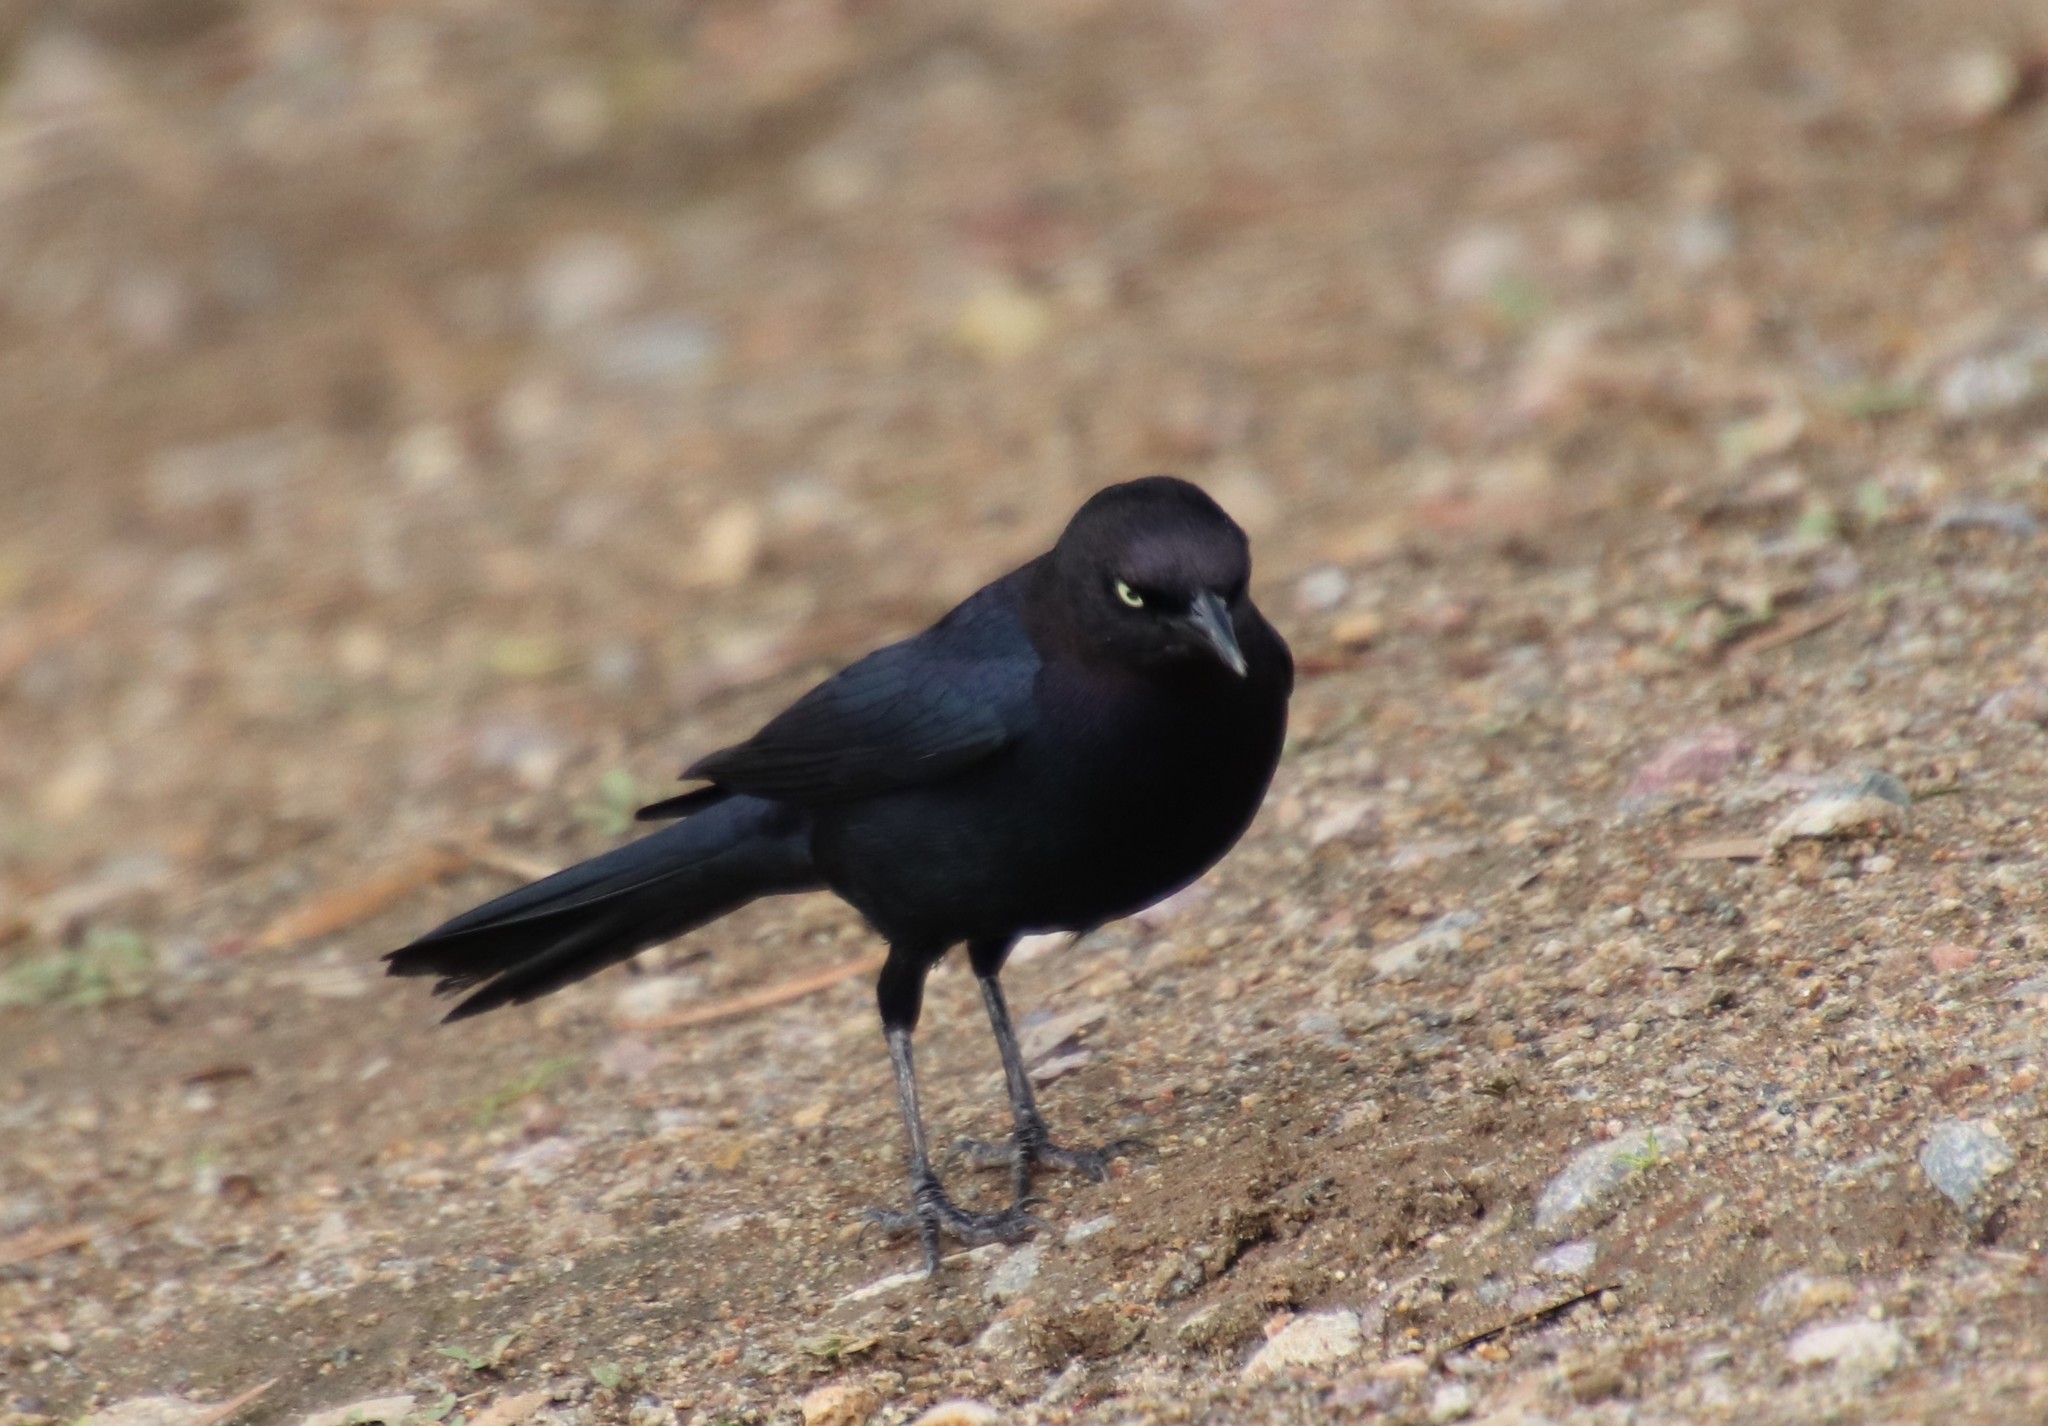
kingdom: Animalia
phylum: Chordata
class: Aves
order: Passeriformes
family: Icteridae
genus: Euphagus
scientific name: Euphagus cyanocephalus
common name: Brewer's blackbird
